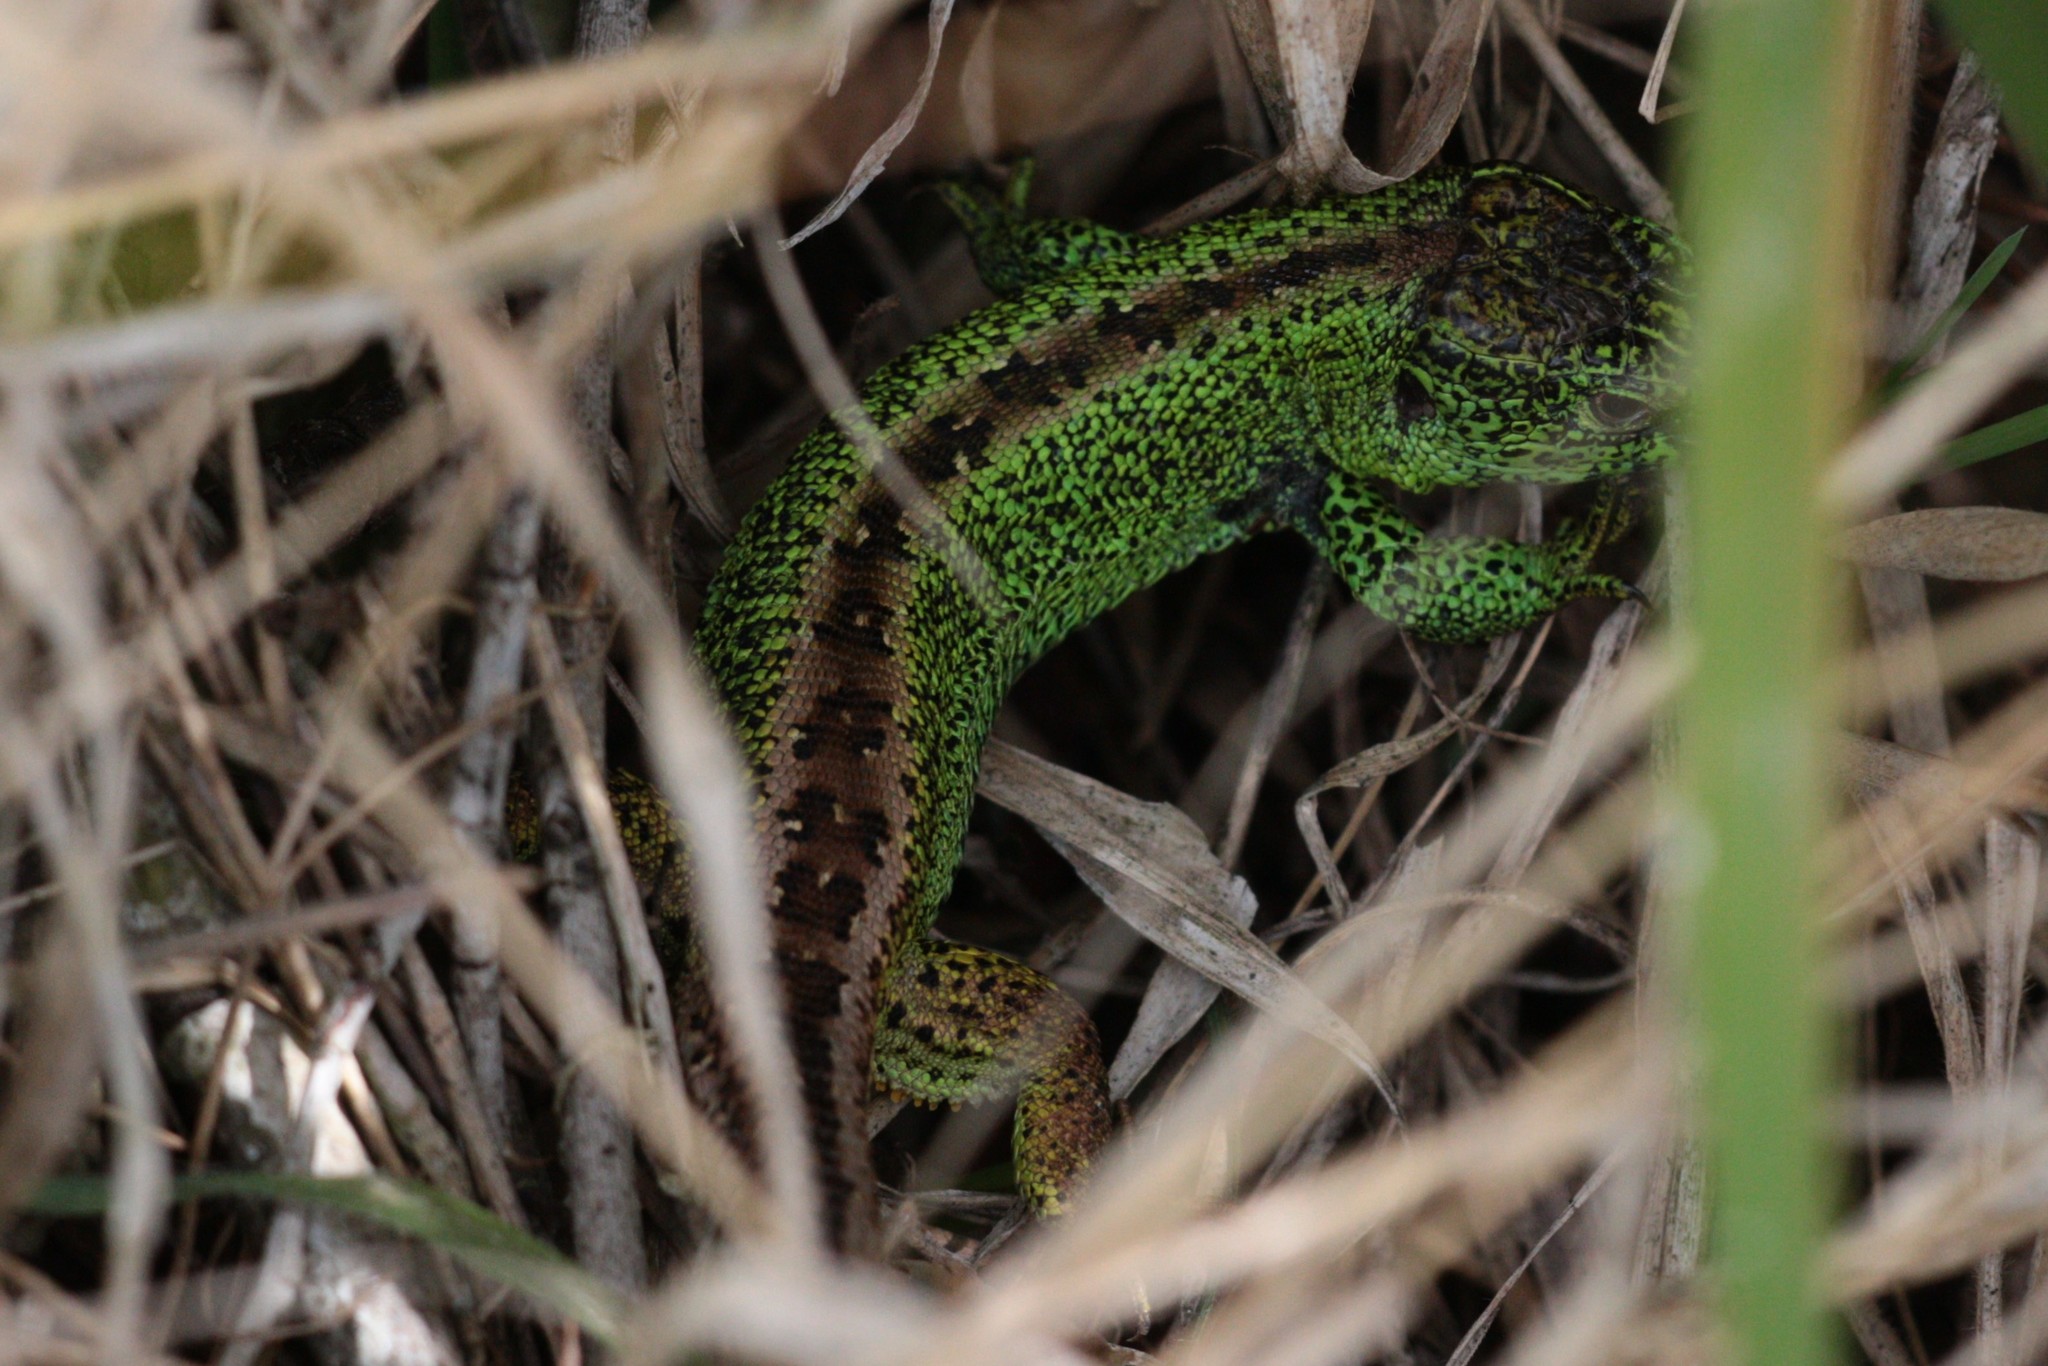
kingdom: Animalia
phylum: Chordata
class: Squamata
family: Lacertidae
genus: Lacerta
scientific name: Lacerta agilis
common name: Sand lizard
